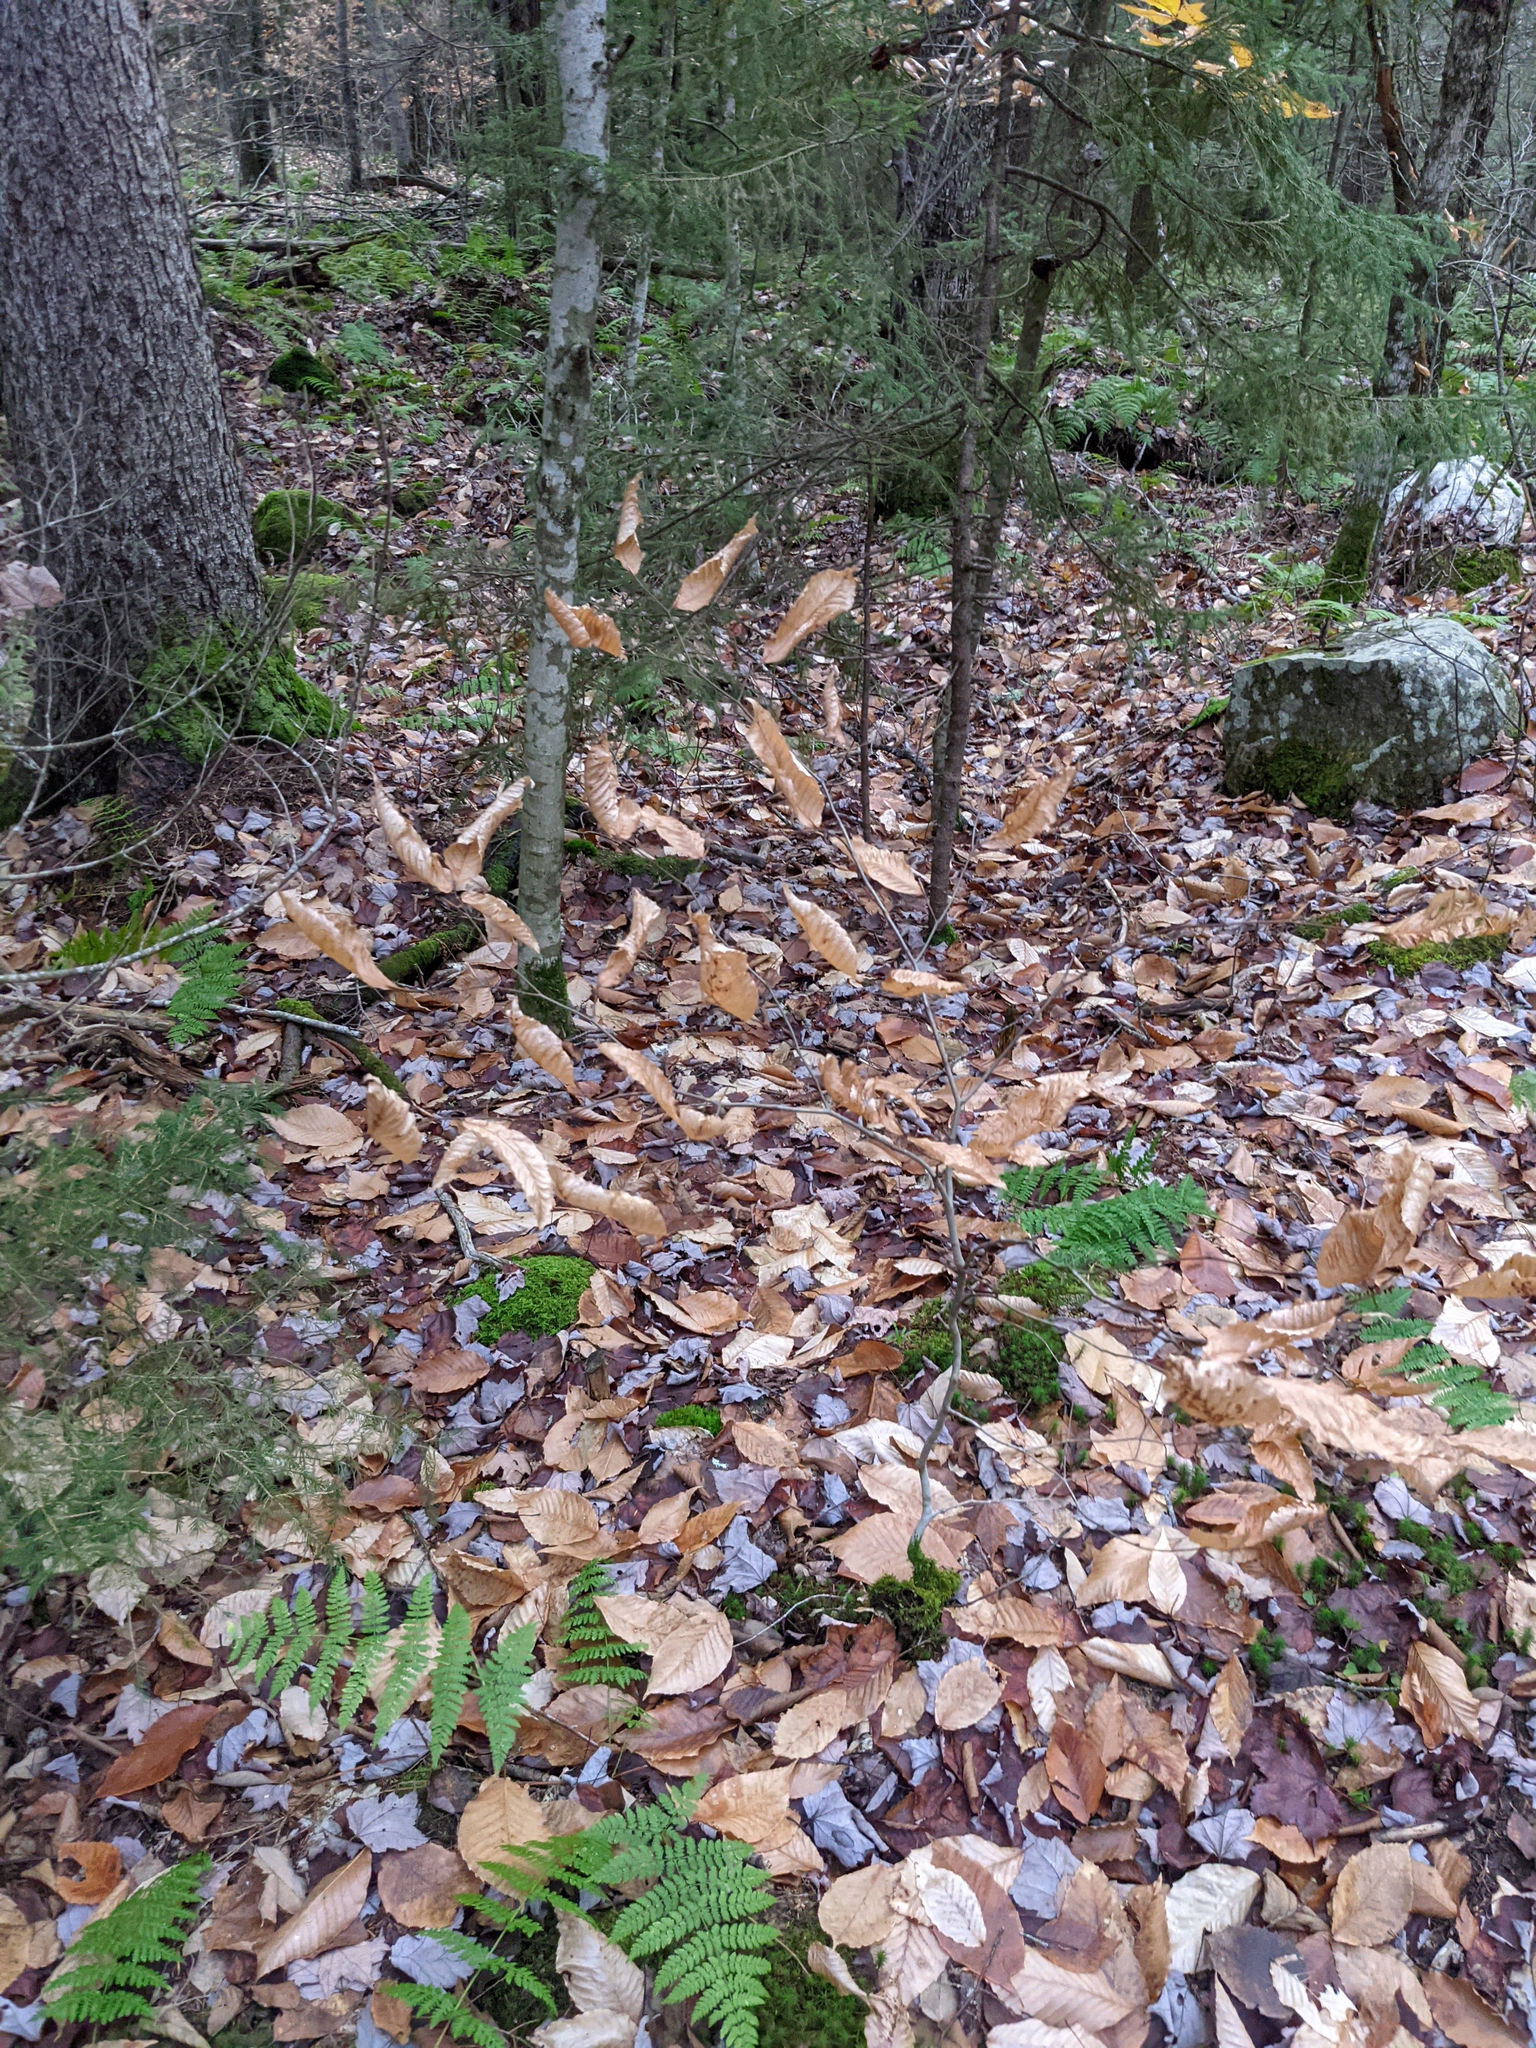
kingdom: Plantae
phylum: Tracheophyta
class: Magnoliopsida
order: Fagales
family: Fagaceae
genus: Fagus
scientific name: Fagus grandifolia
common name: American beech
